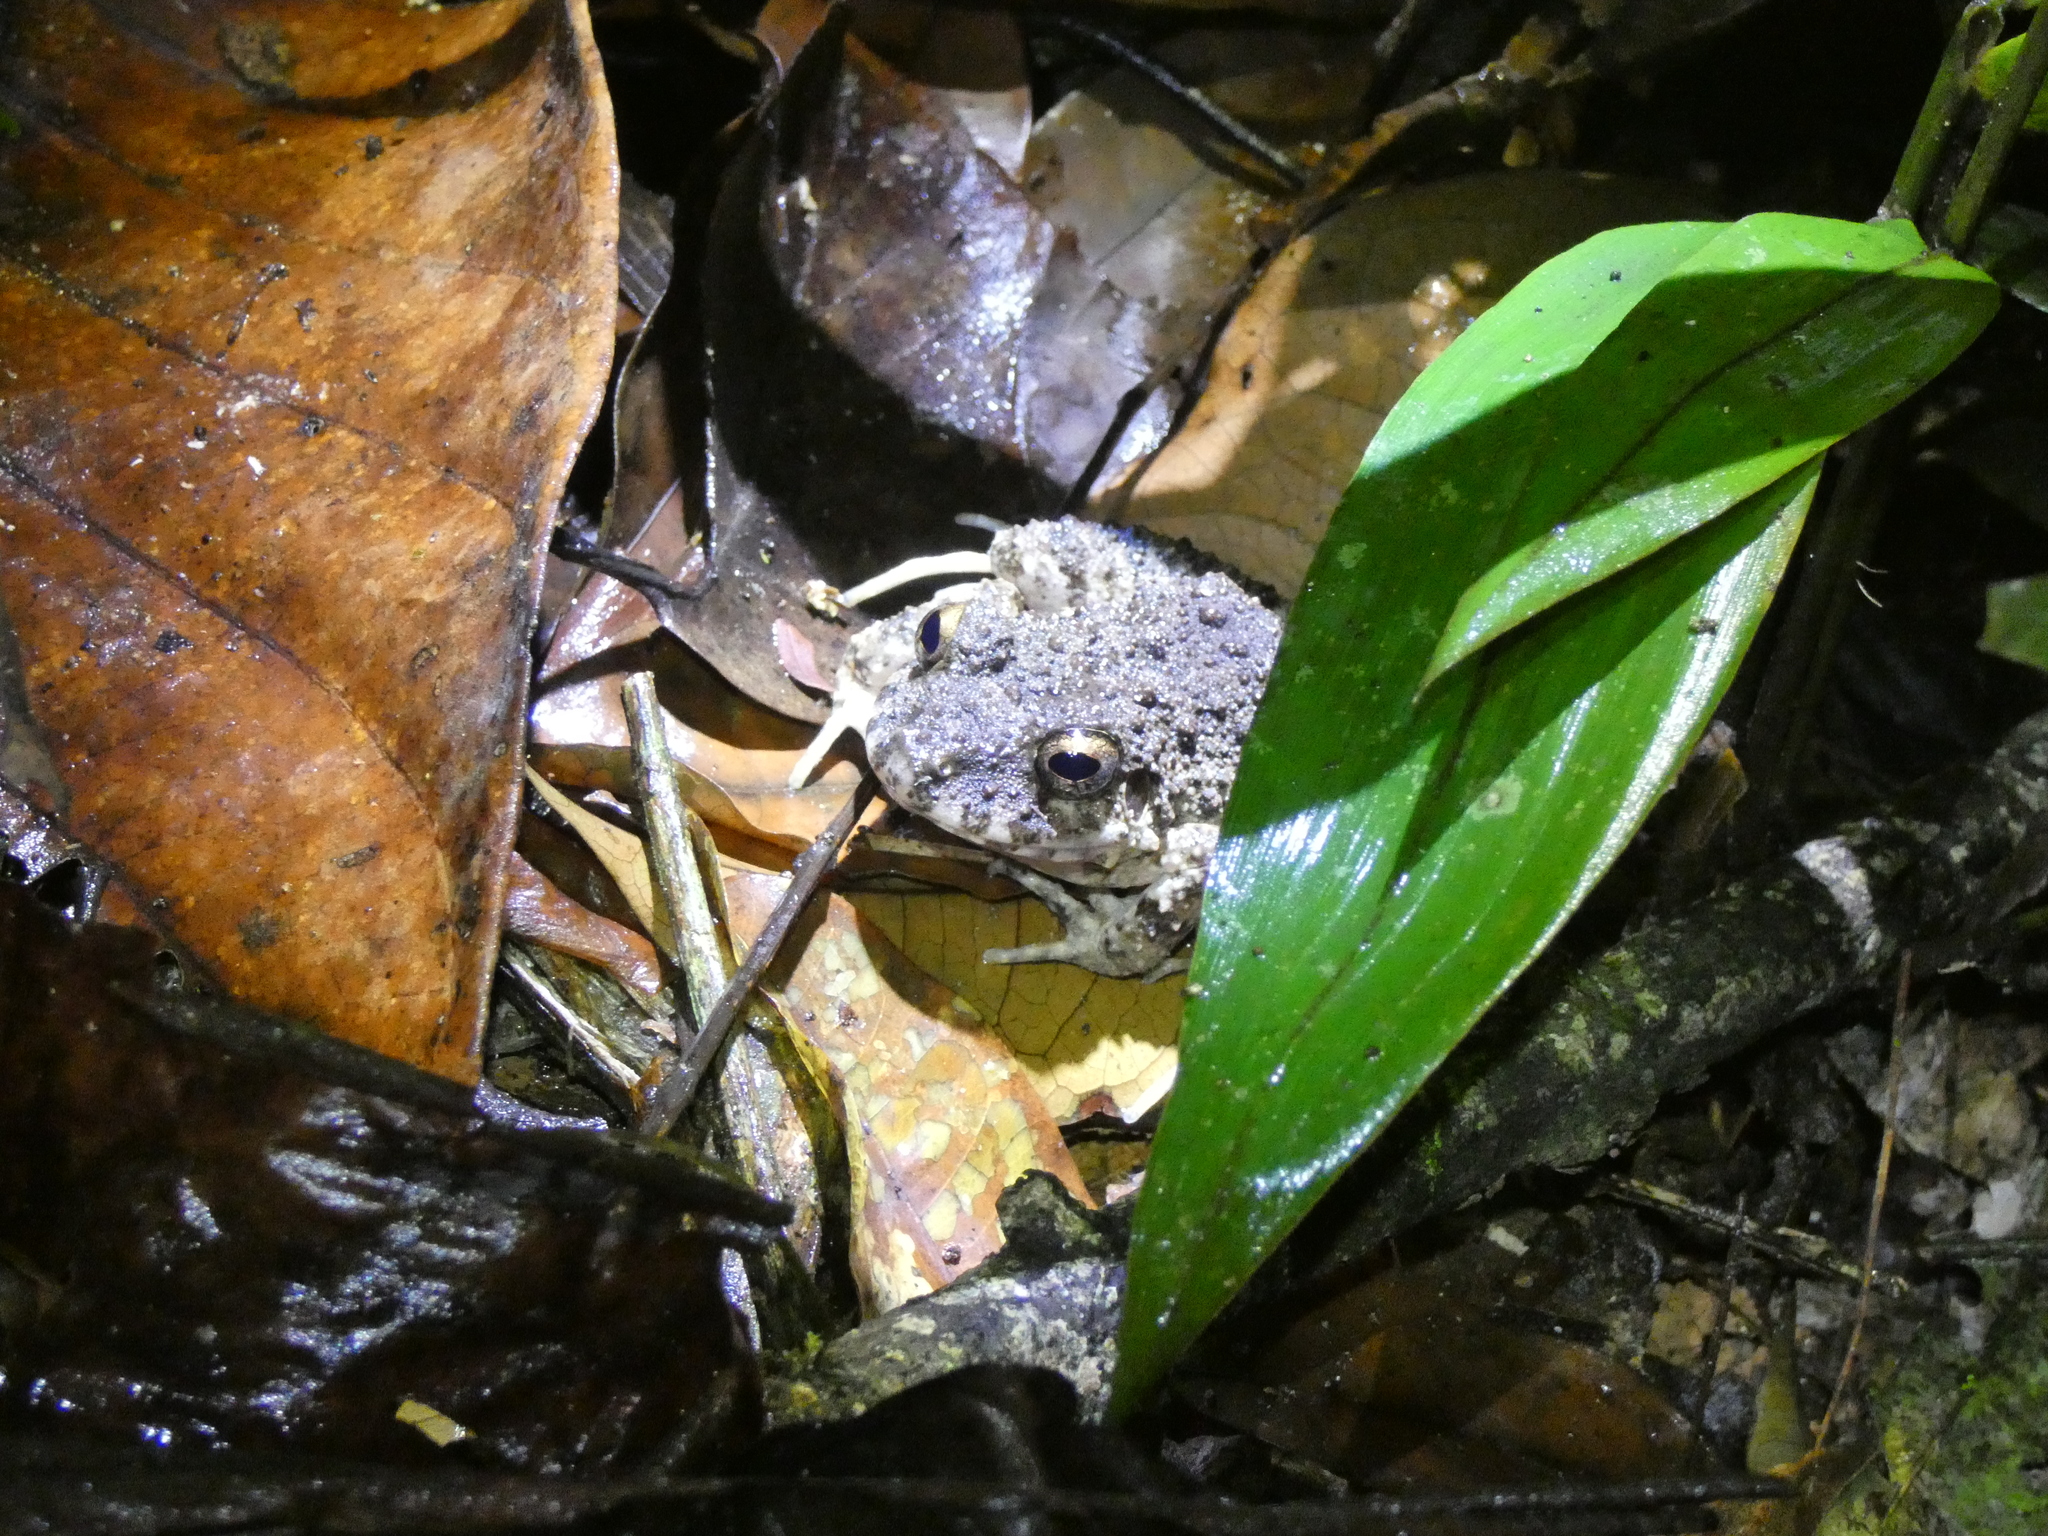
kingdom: Animalia
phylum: Chordata
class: Amphibia
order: Anura
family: Craugastoridae
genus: Oreobates
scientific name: Oreobates quixensis
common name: Common big-headed frog
